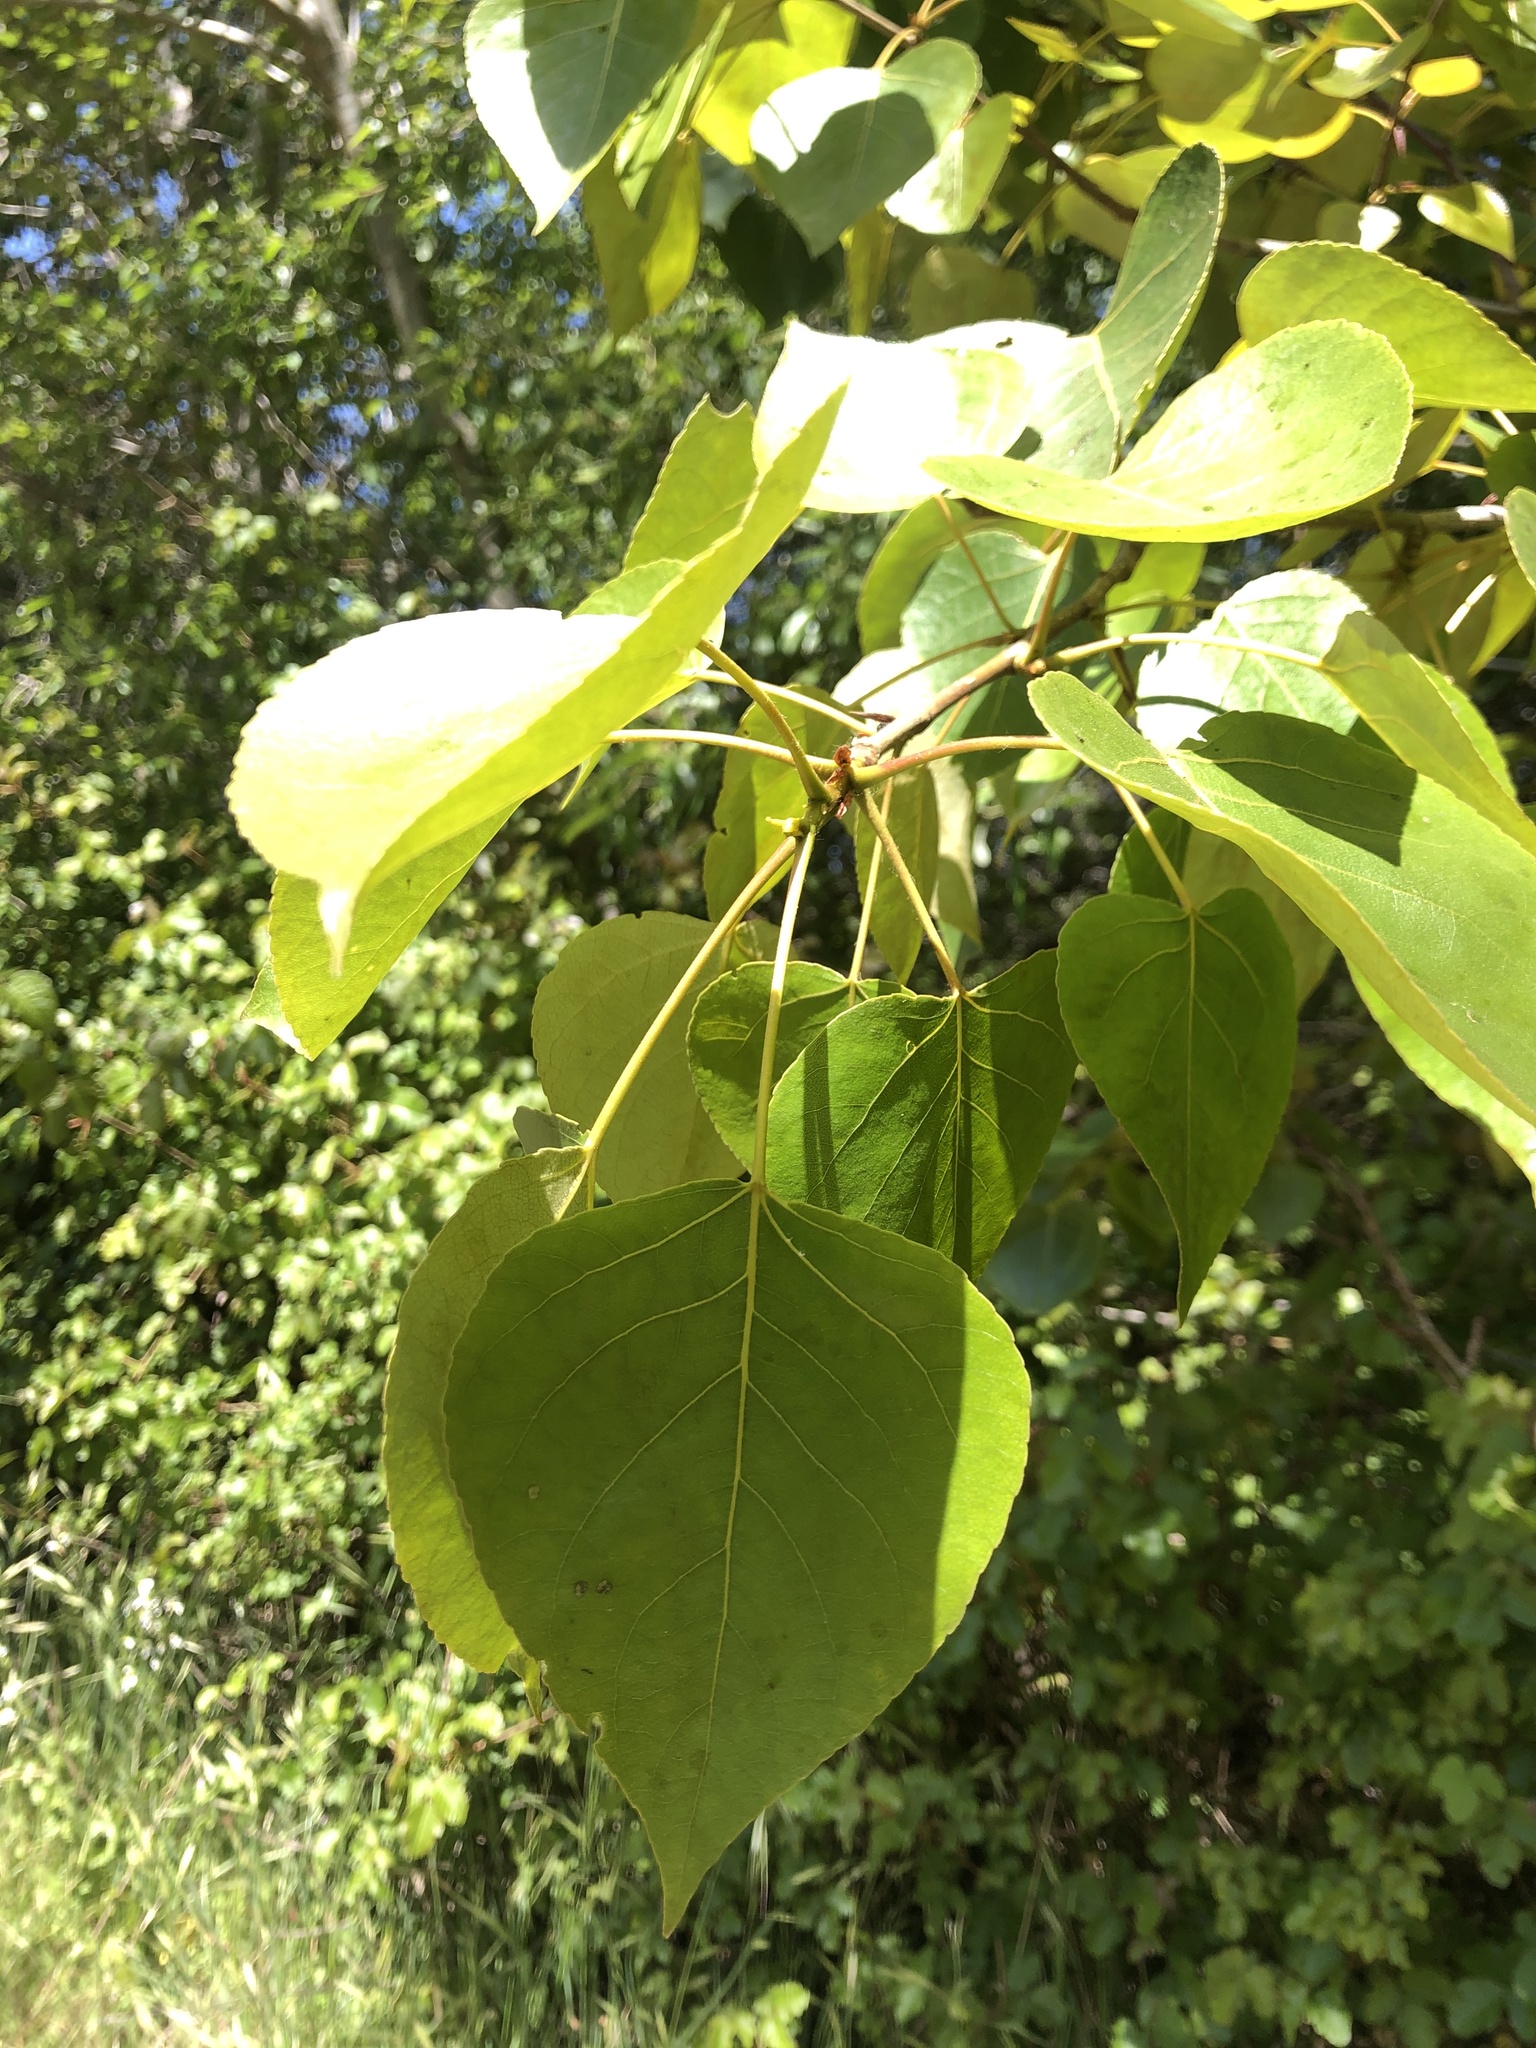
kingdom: Plantae
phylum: Tracheophyta
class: Magnoliopsida
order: Malpighiales
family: Salicaceae
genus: Populus
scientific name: Populus trichocarpa
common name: Black cottonwood
